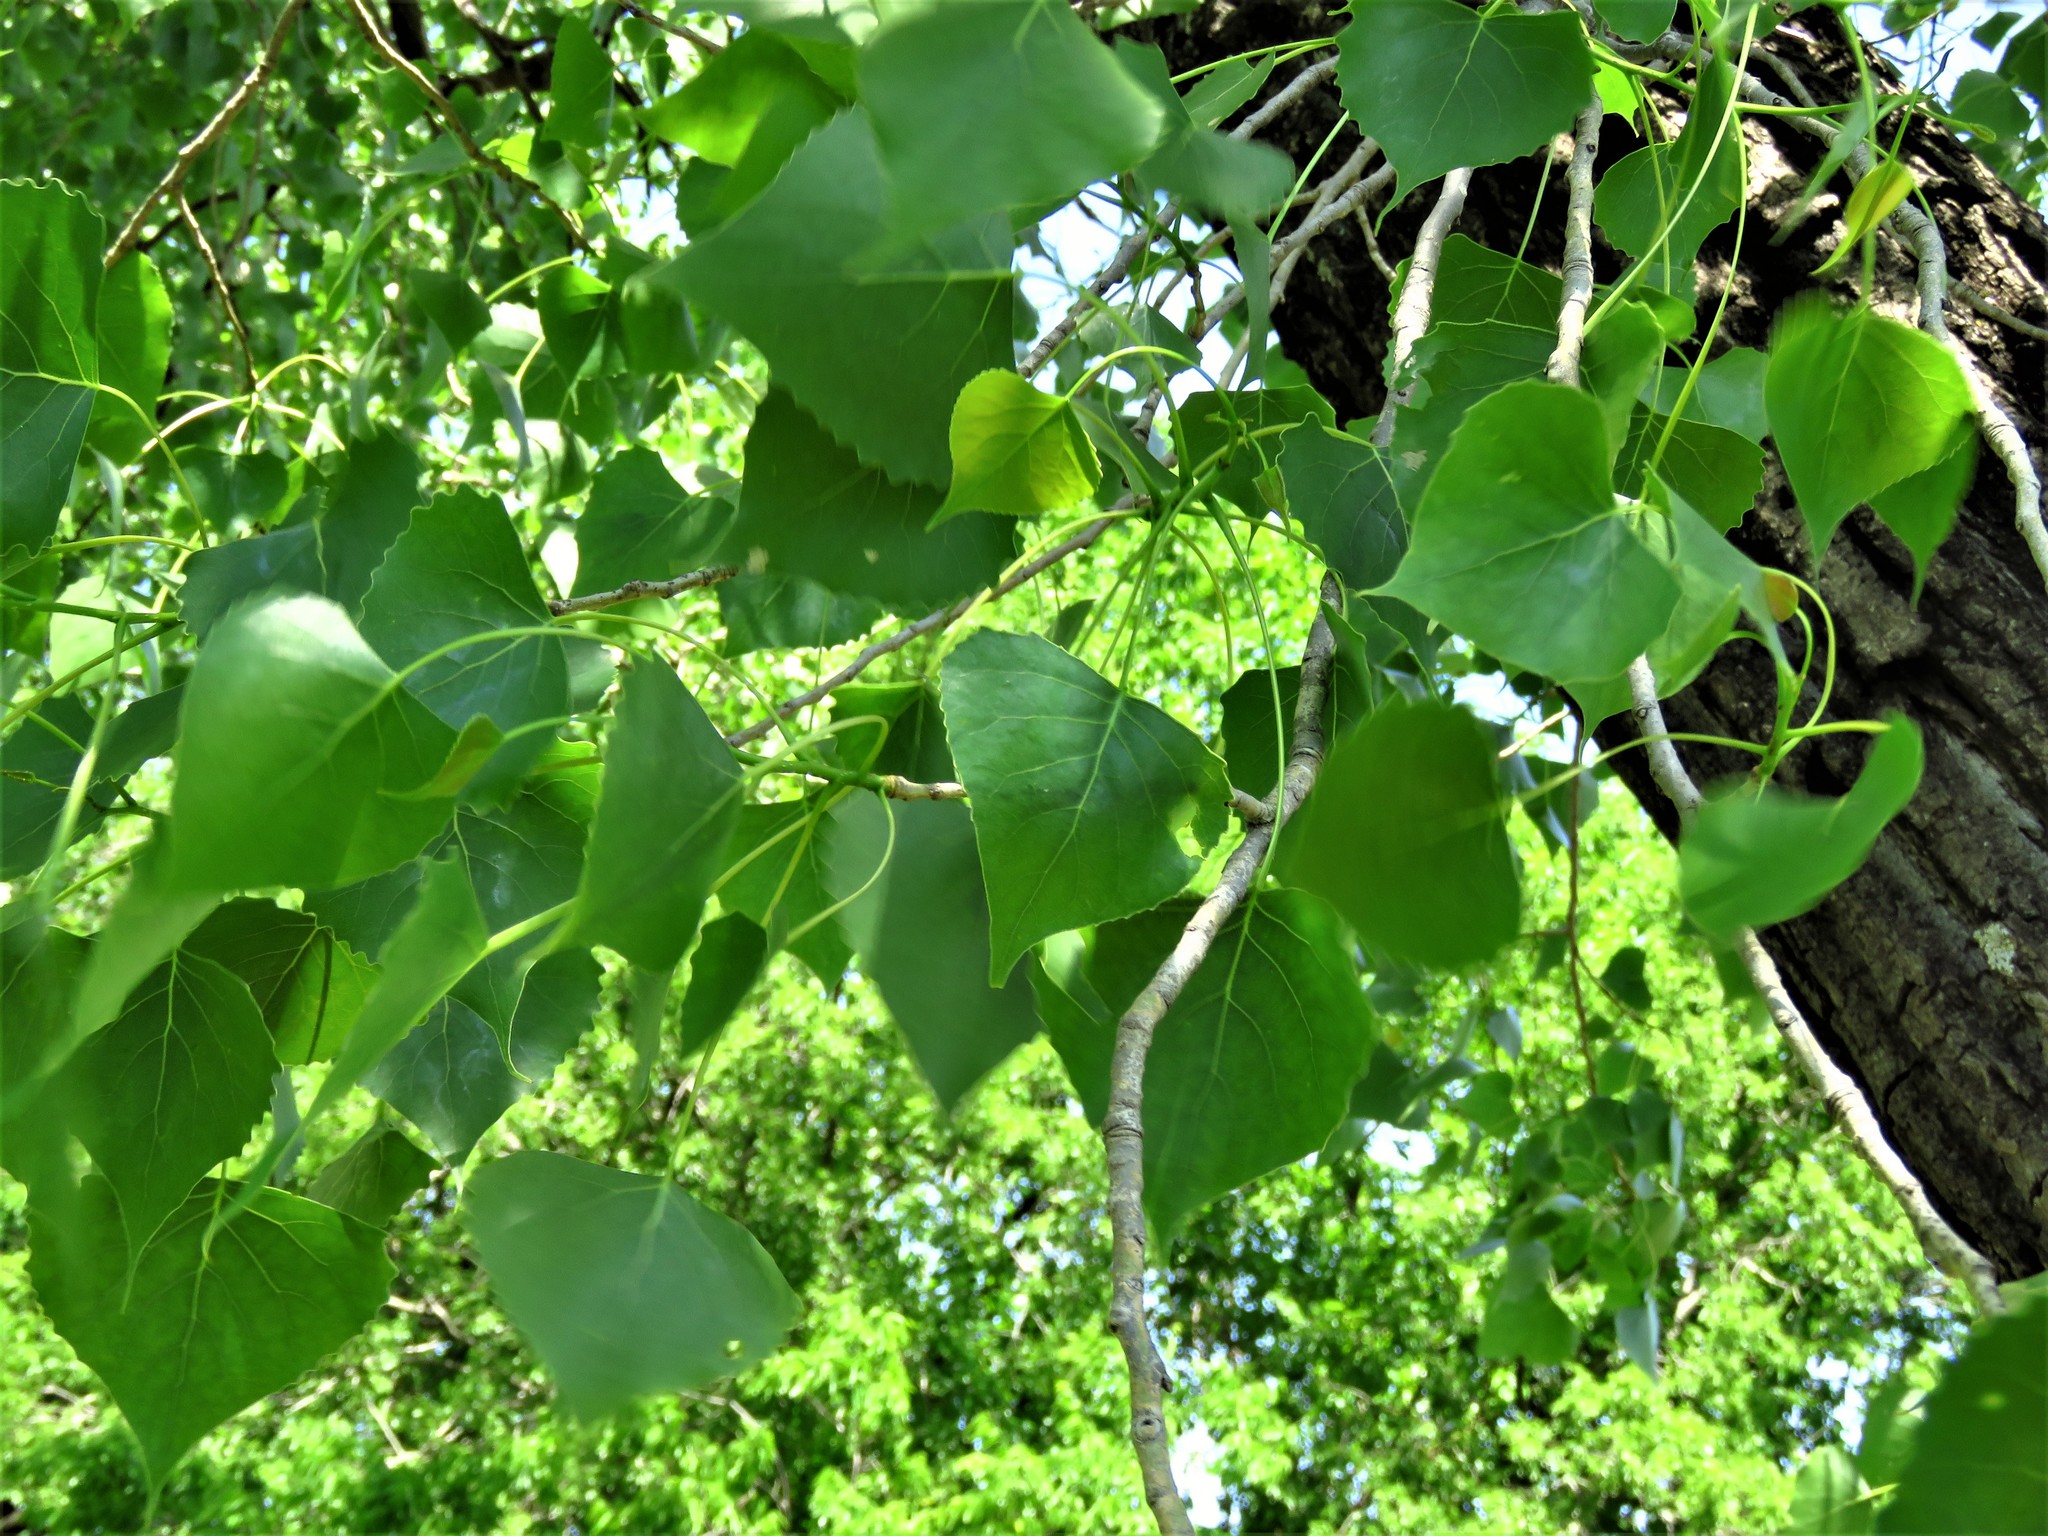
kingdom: Plantae
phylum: Tracheophyta
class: Magnoliopsida
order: Malpighiales
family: Salicaceae
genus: Populus
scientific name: Populus deltoides
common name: Eastern cottonwood
